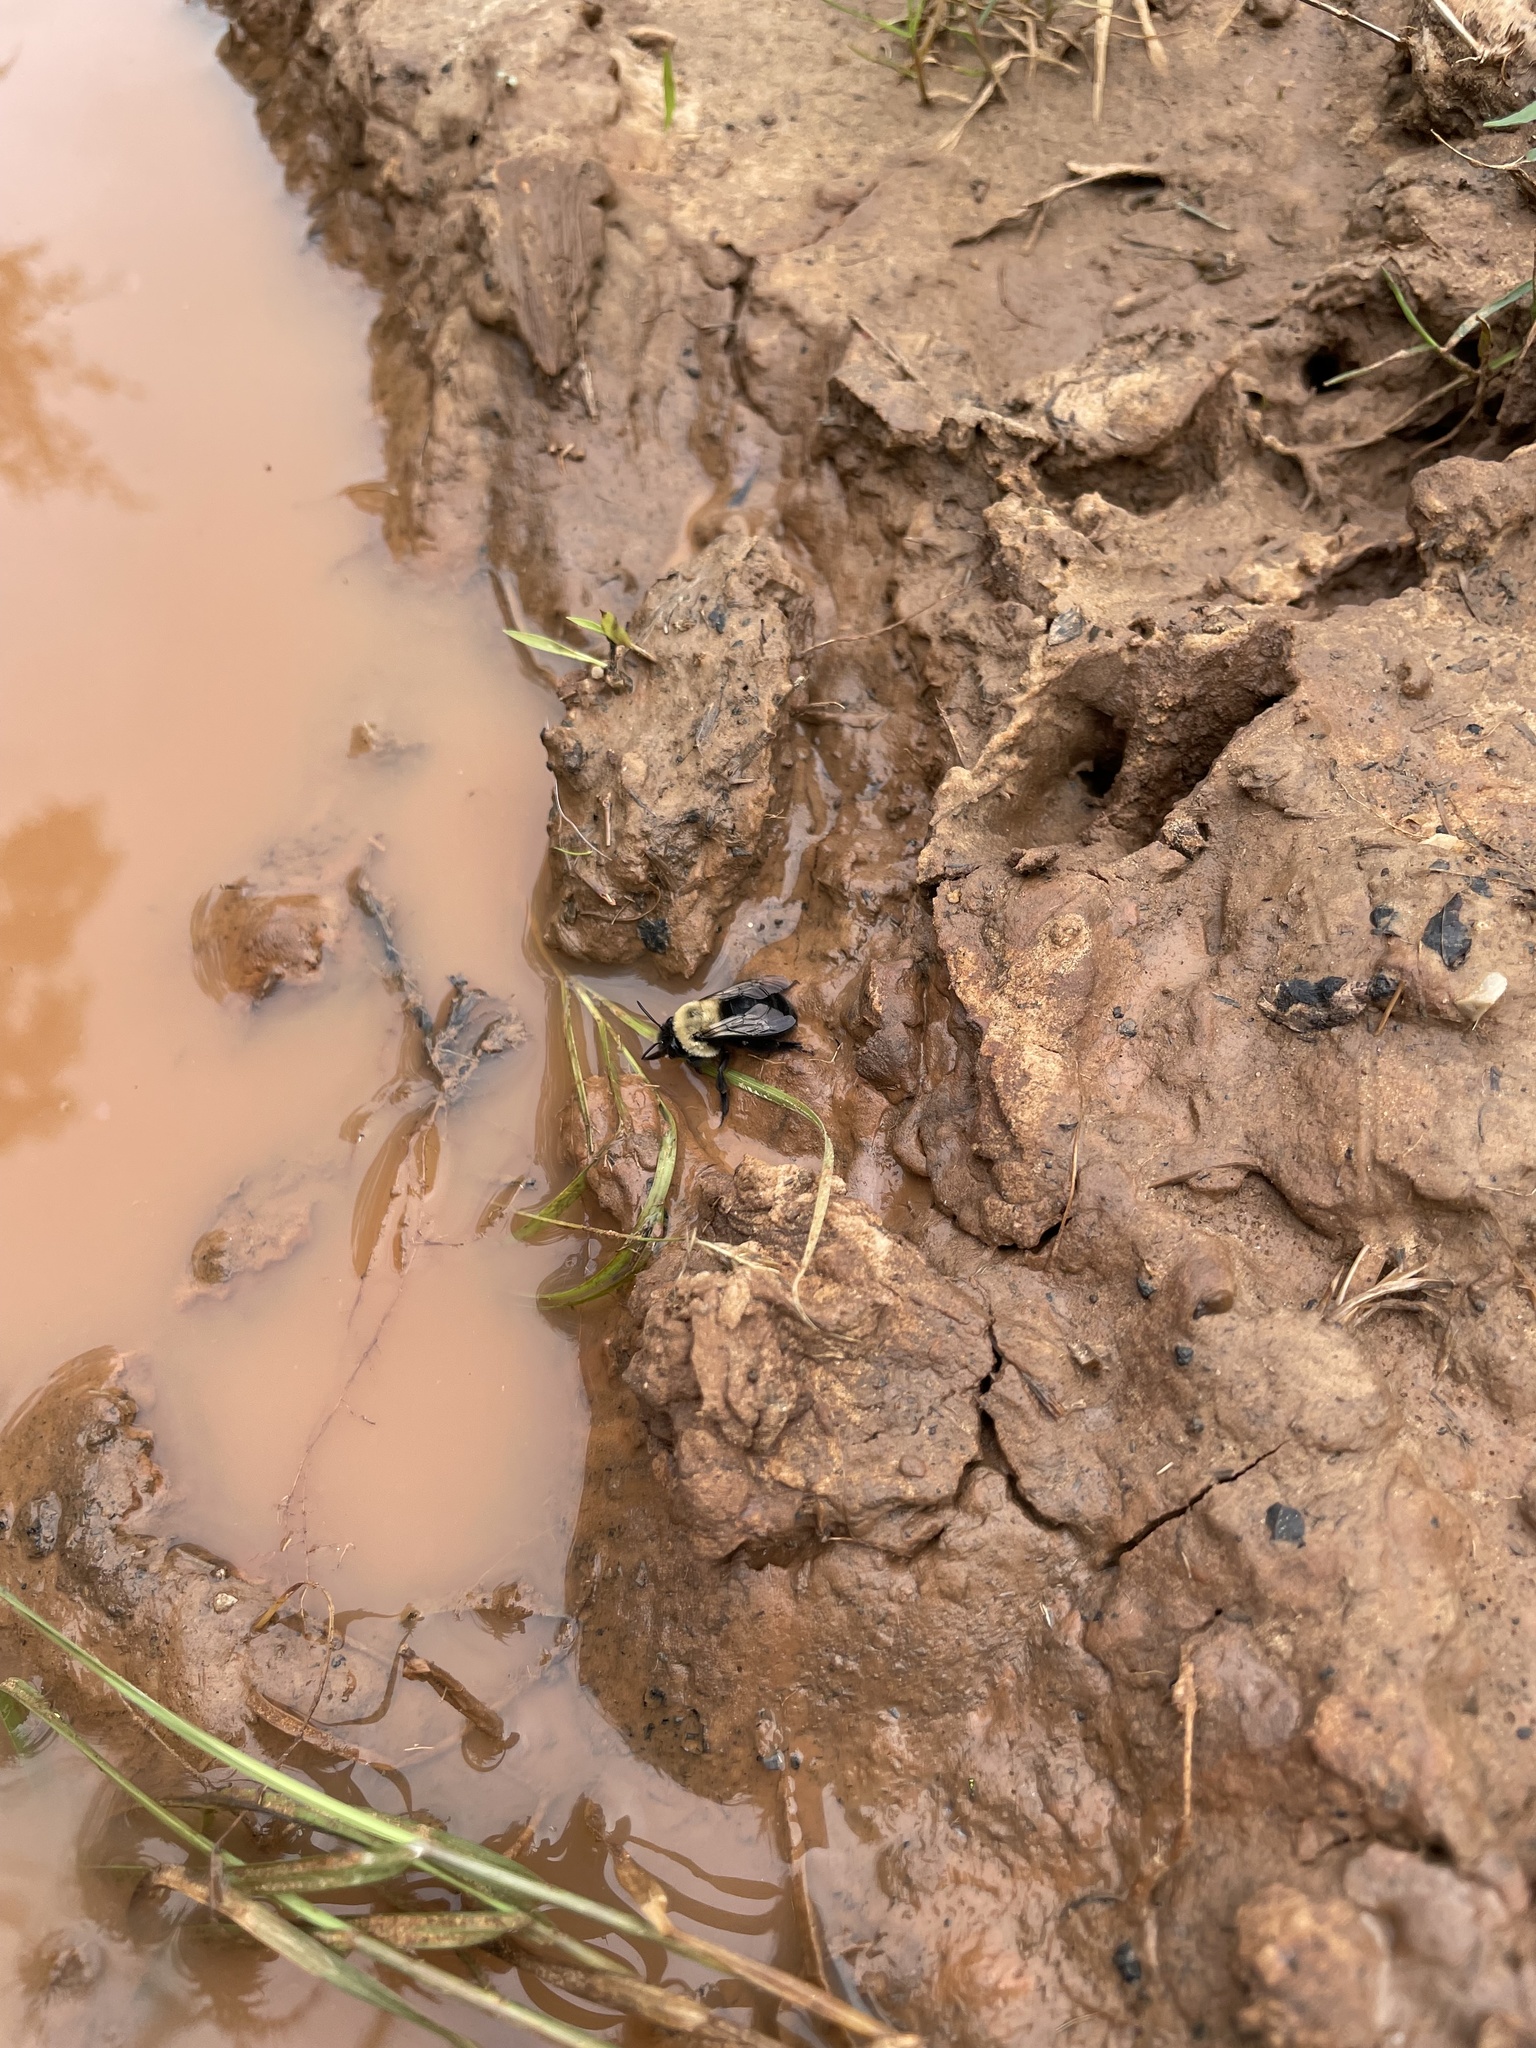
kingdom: Animalia
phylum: Arthropoda
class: Insecta
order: Hymenoptera
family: Apidae
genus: Anthophora
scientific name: Anthophora abrupta
